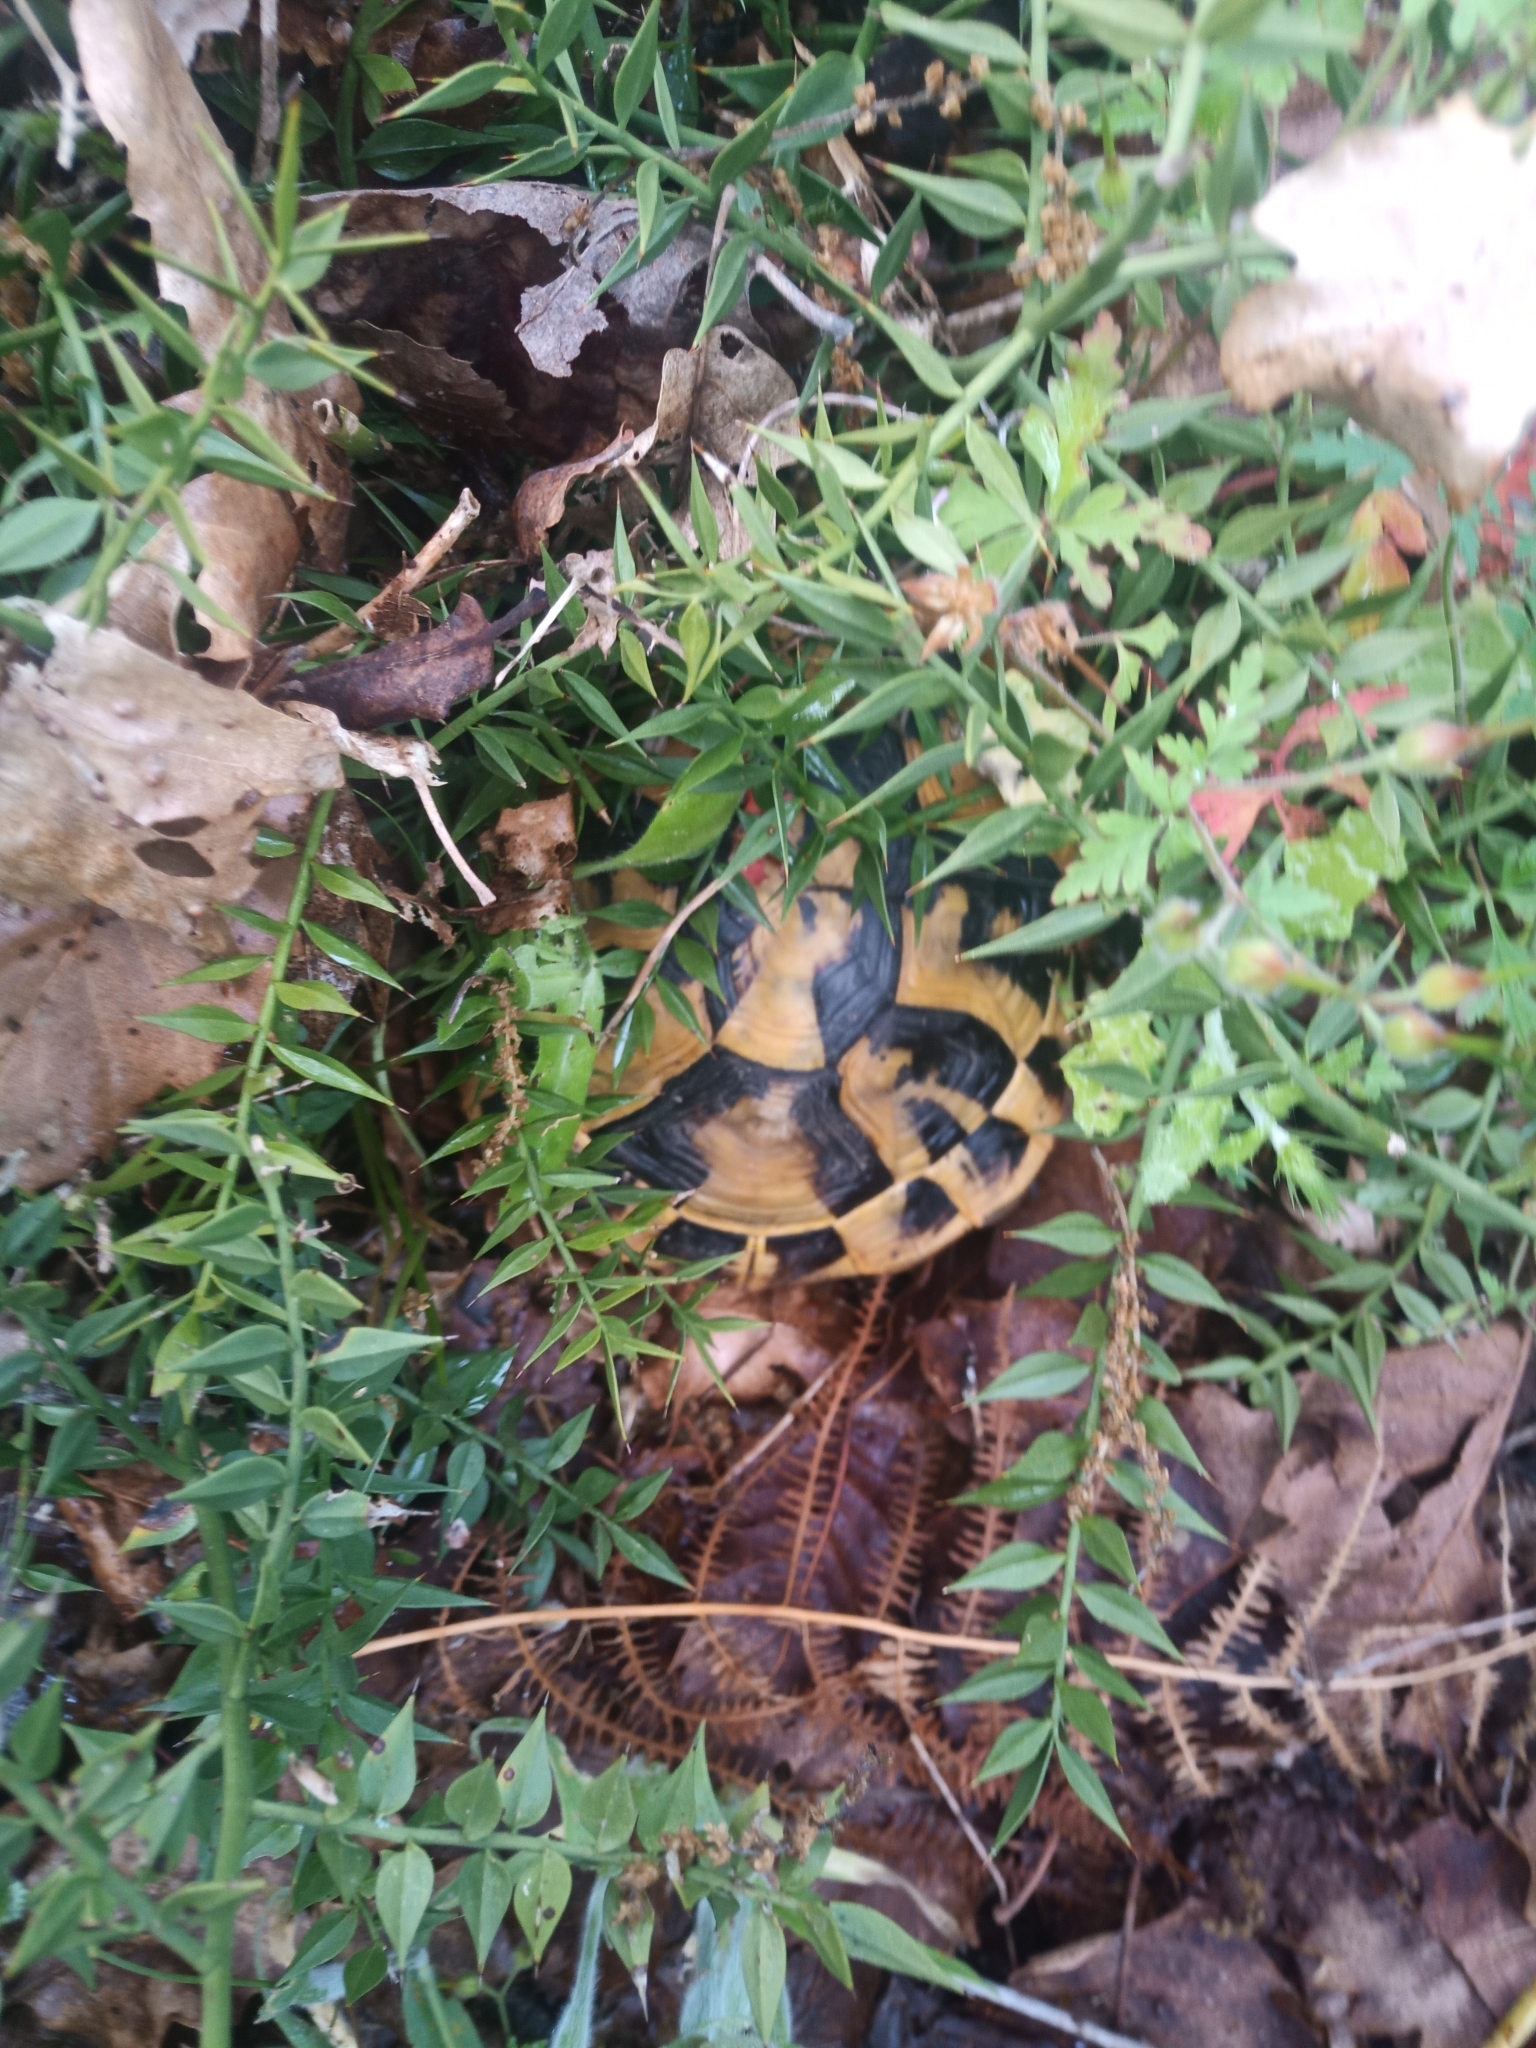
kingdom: Animalia
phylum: Chordata
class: Testudines
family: Testudinidae
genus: Testudo
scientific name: Testudo hermanni
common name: Hermann's tortoise
